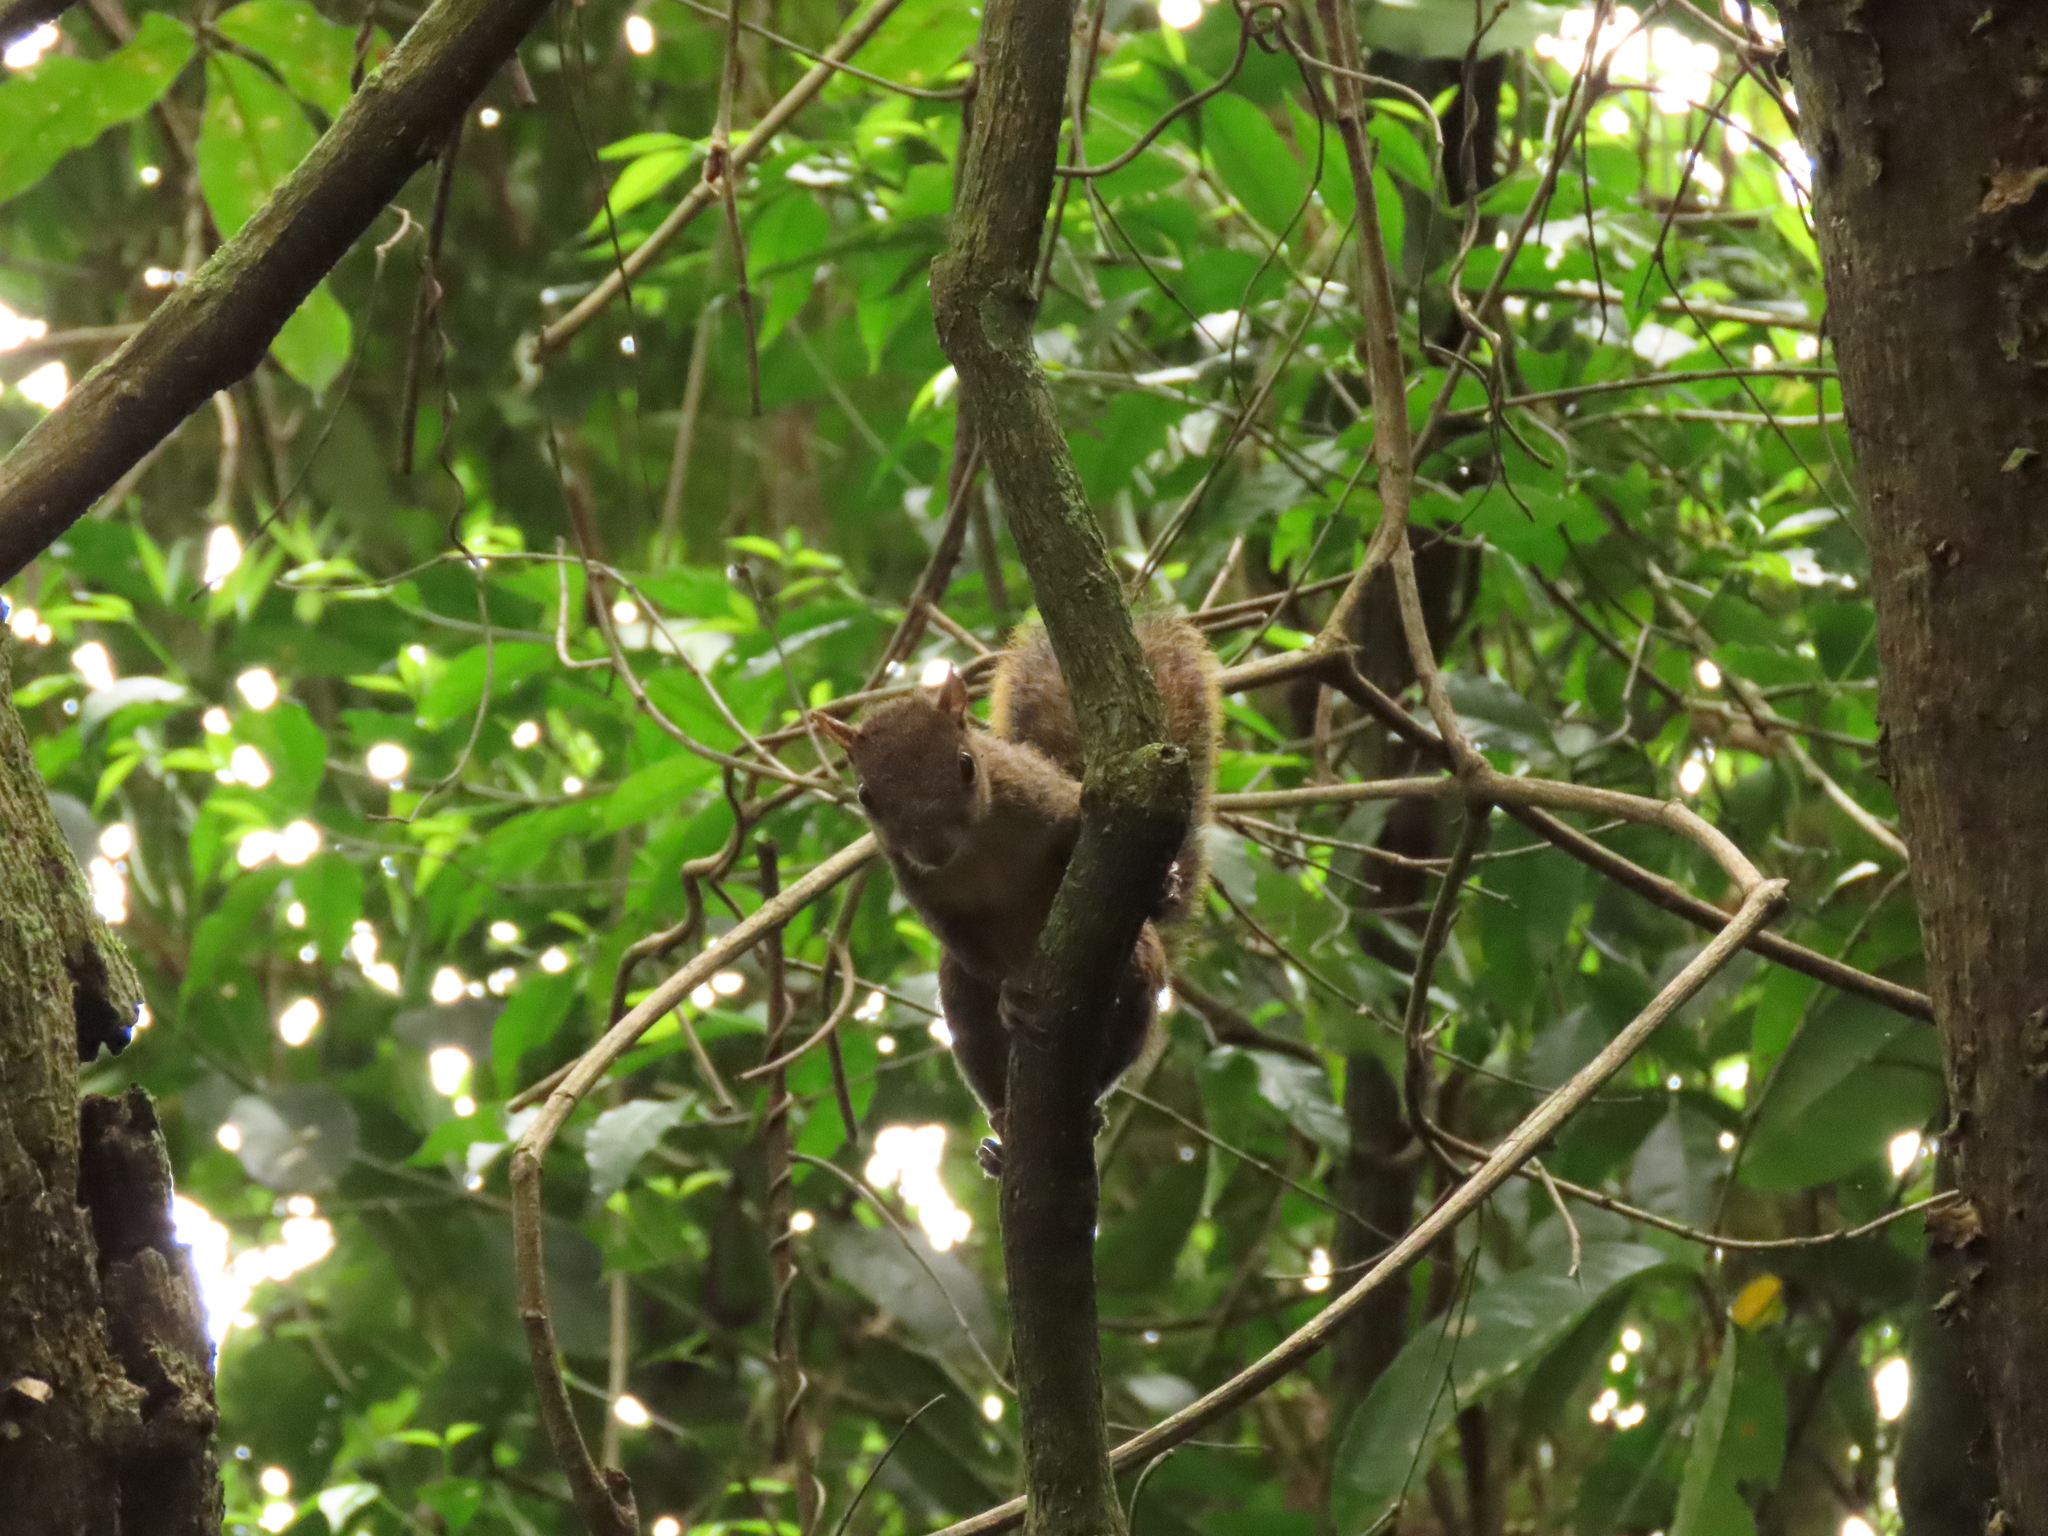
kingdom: Animalia
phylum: Chordata
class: Mammalia
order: Rodentia
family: Sciuridae
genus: Sciurus
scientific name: Sciurus aestuans
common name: Guianan squirrel
